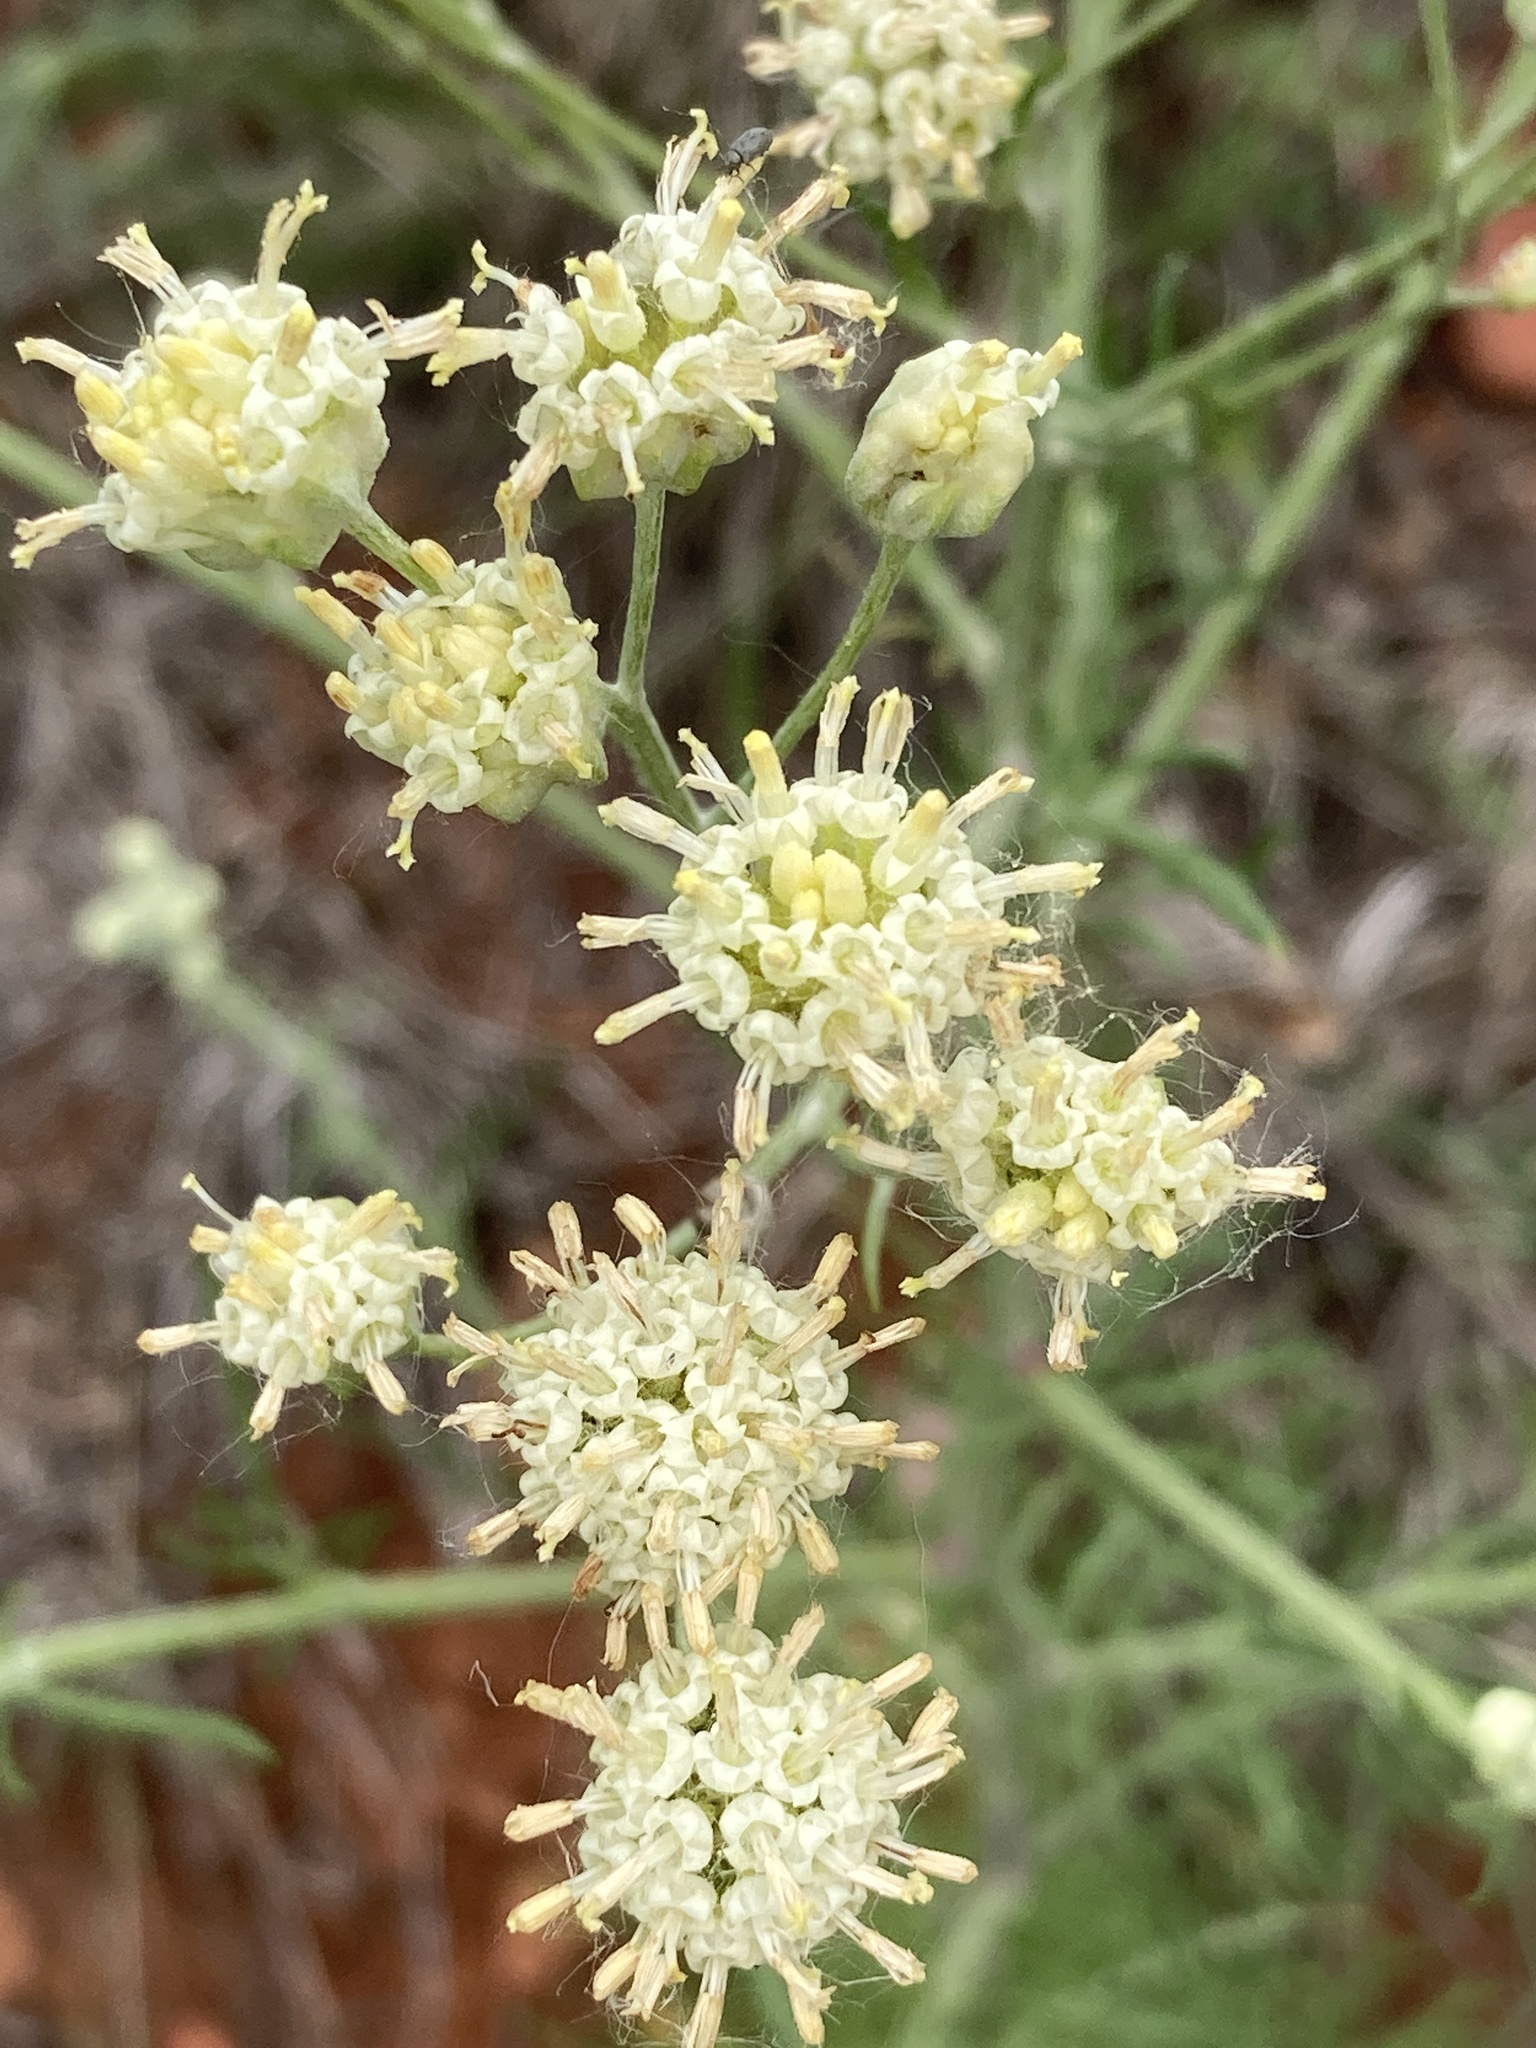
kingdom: Plantae
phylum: Tracheophyta
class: Magnoliopsida
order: Asterales
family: Asteraceae
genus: Hymenopappus
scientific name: Hymenopappus tenuifolius
